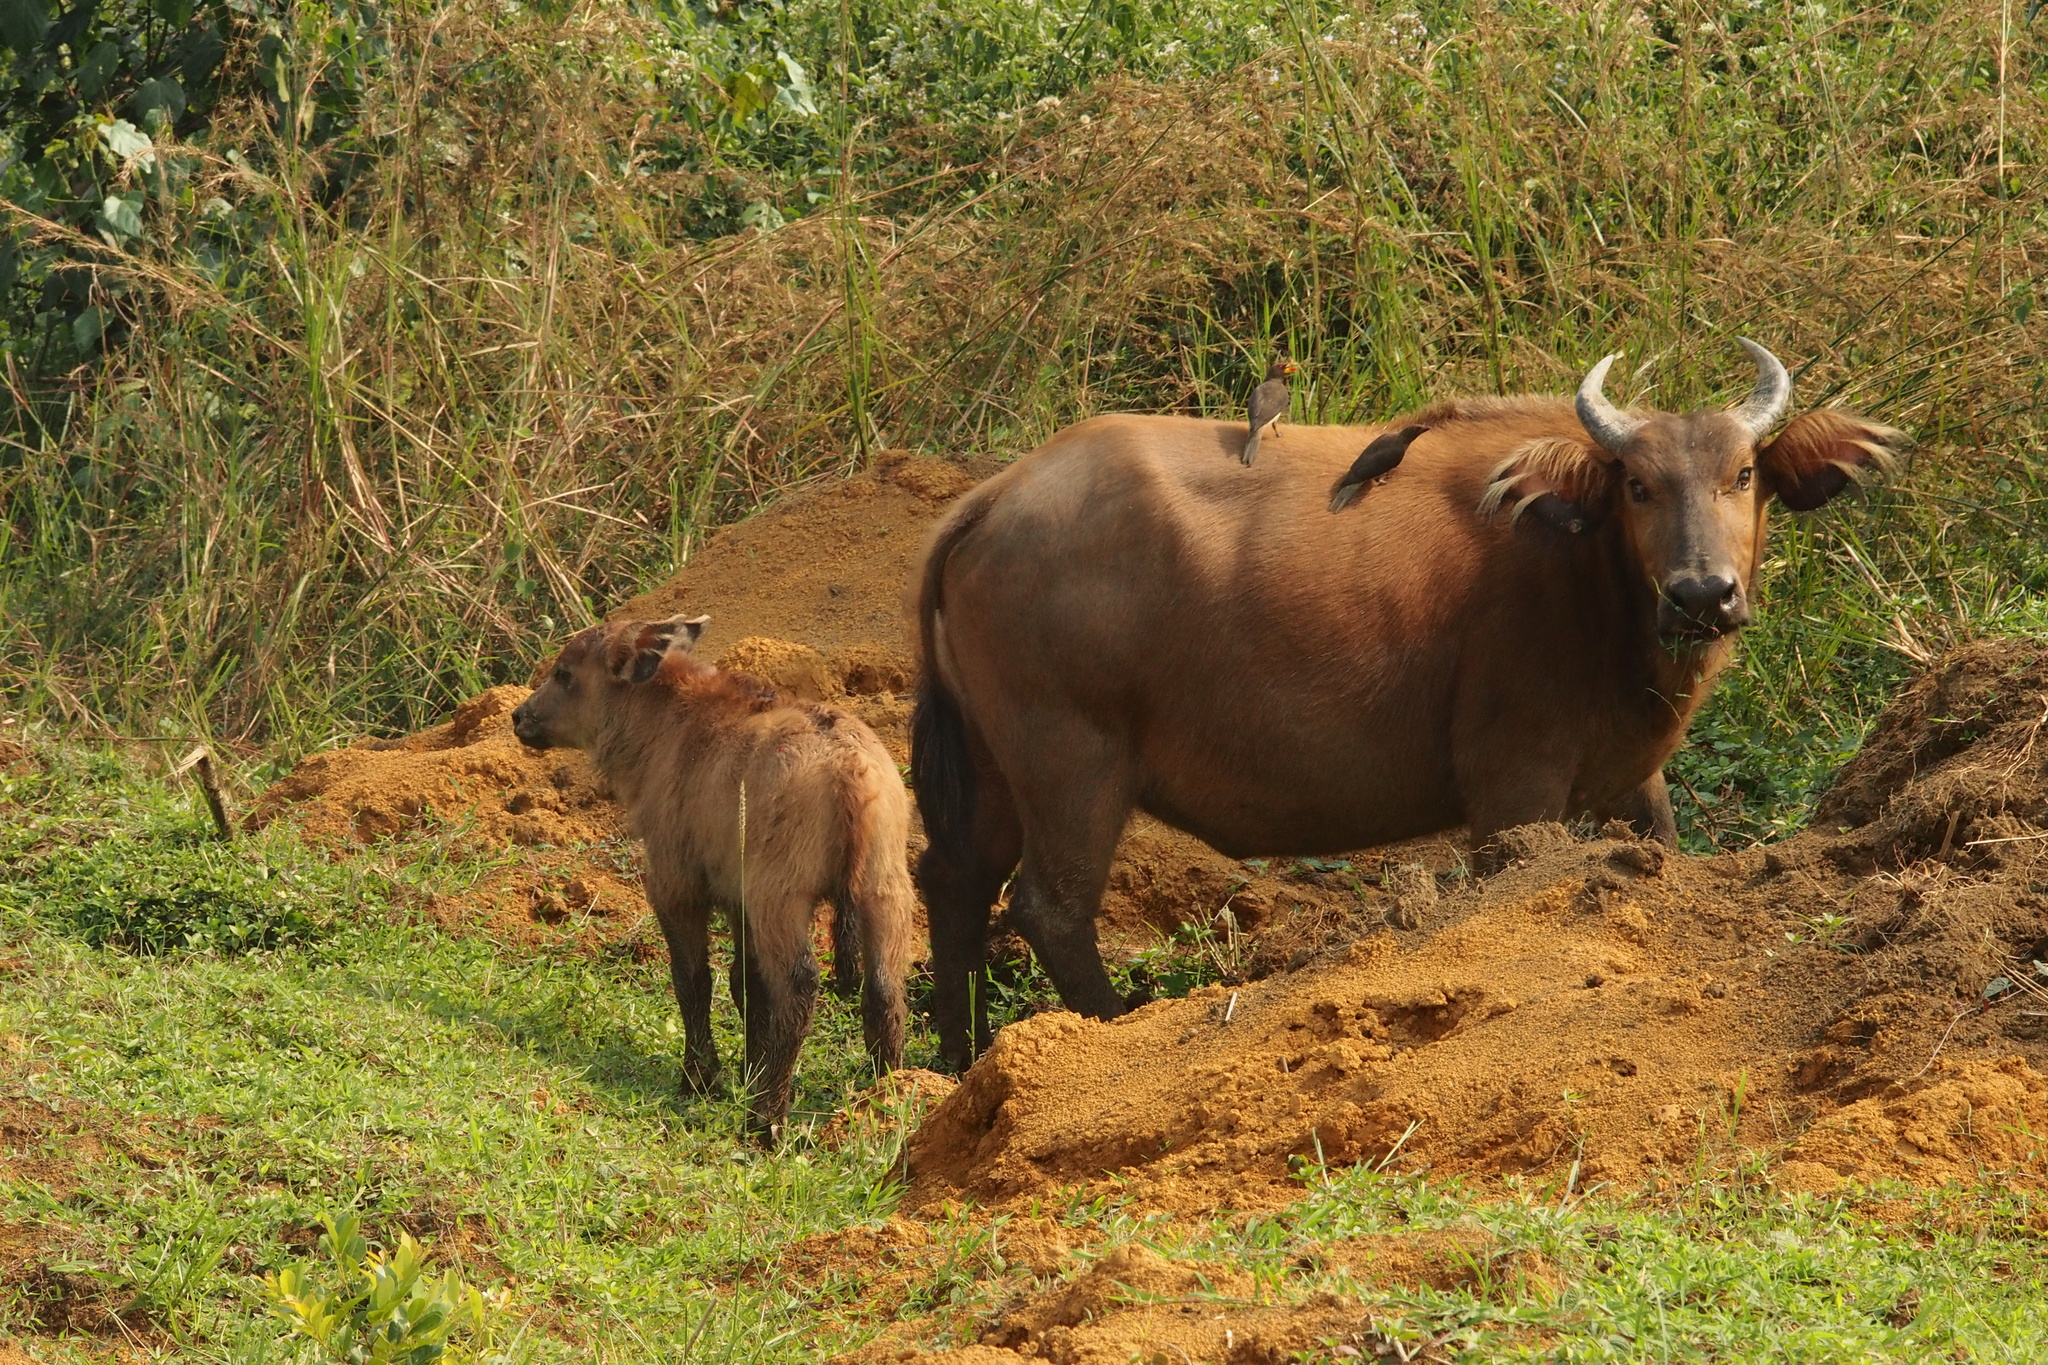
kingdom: Animalia
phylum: Chordata
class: Mammalia
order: Artiodactyla
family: Bovidae
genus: Syncerus
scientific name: Syncerus caffer
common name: African buffalo
